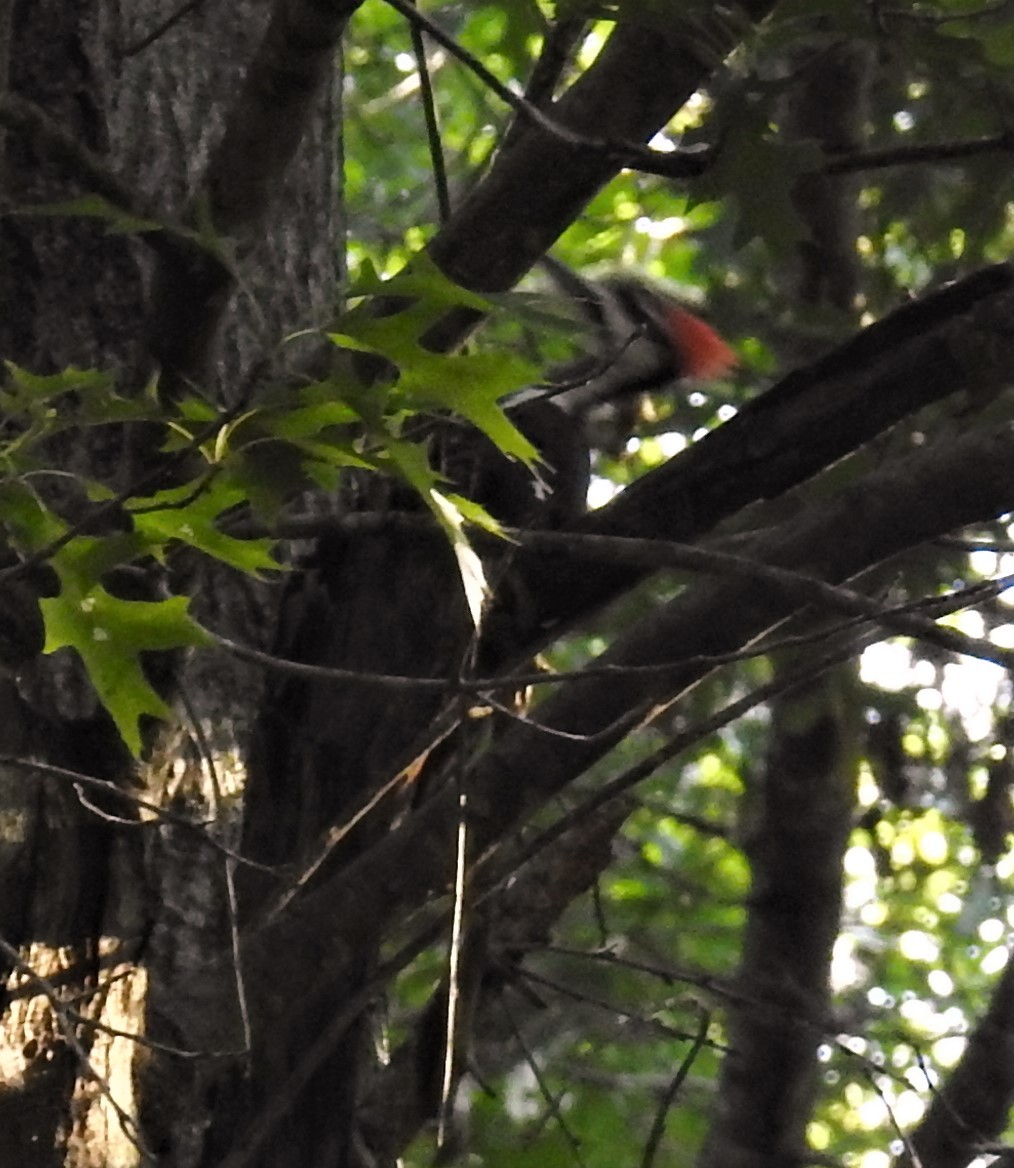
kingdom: Animalia
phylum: Chordata
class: Aves
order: Piciformes
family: Picidae
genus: Dryocopus
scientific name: Dryocopus pileatus
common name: Pileated woodpecker
